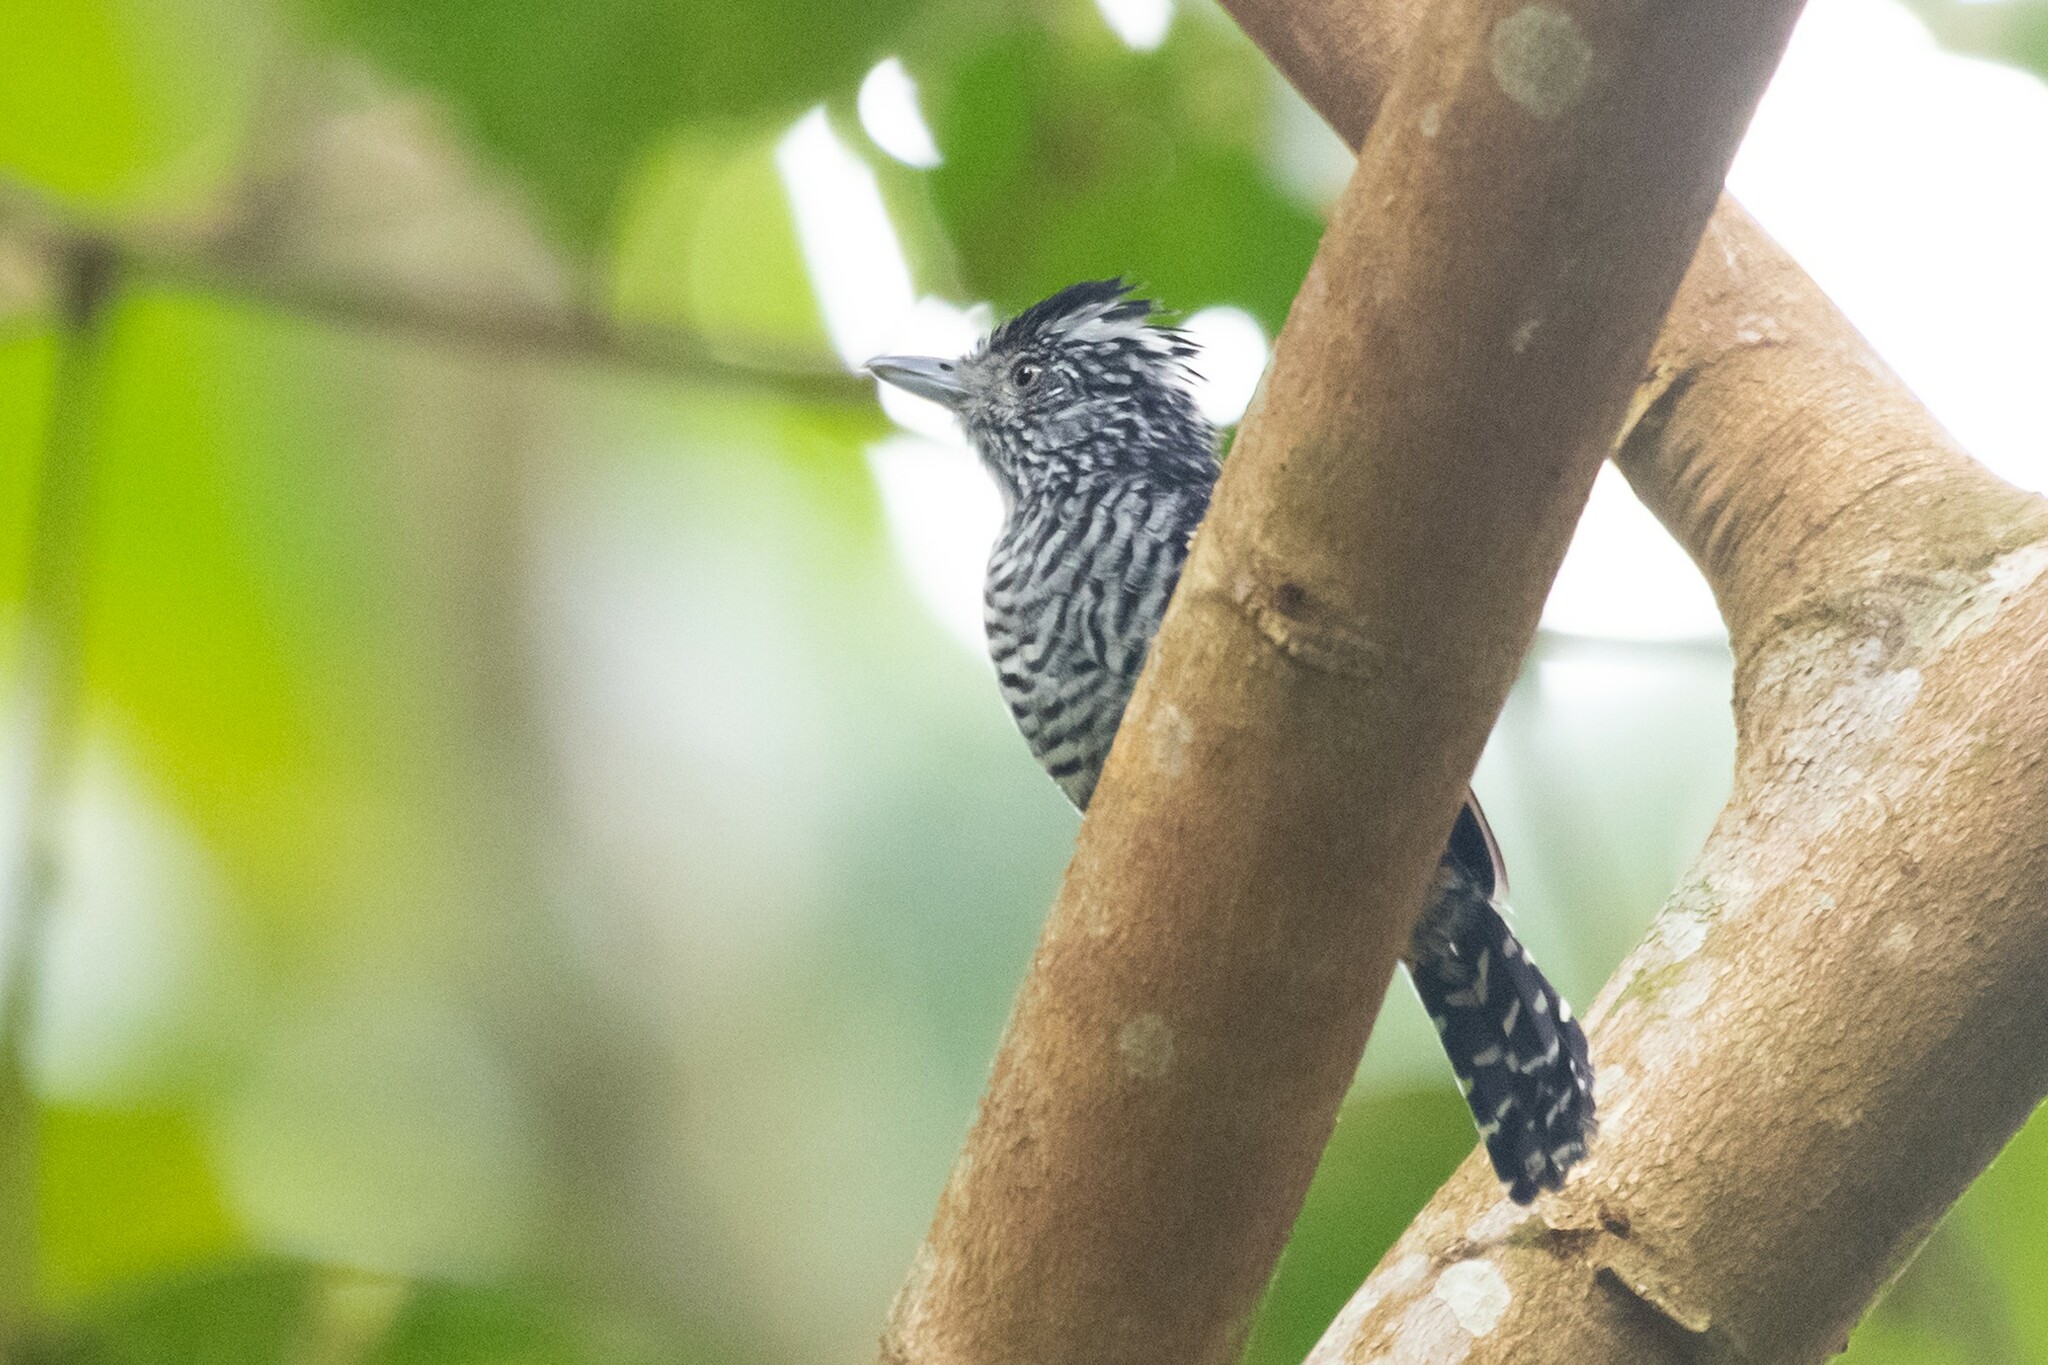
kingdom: Animalia
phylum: Chordata
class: Aves
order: Passeriformes
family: Thamnophilidae
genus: Thamnophilus
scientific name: Thamnophilus doliatus
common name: Barred antshrike
